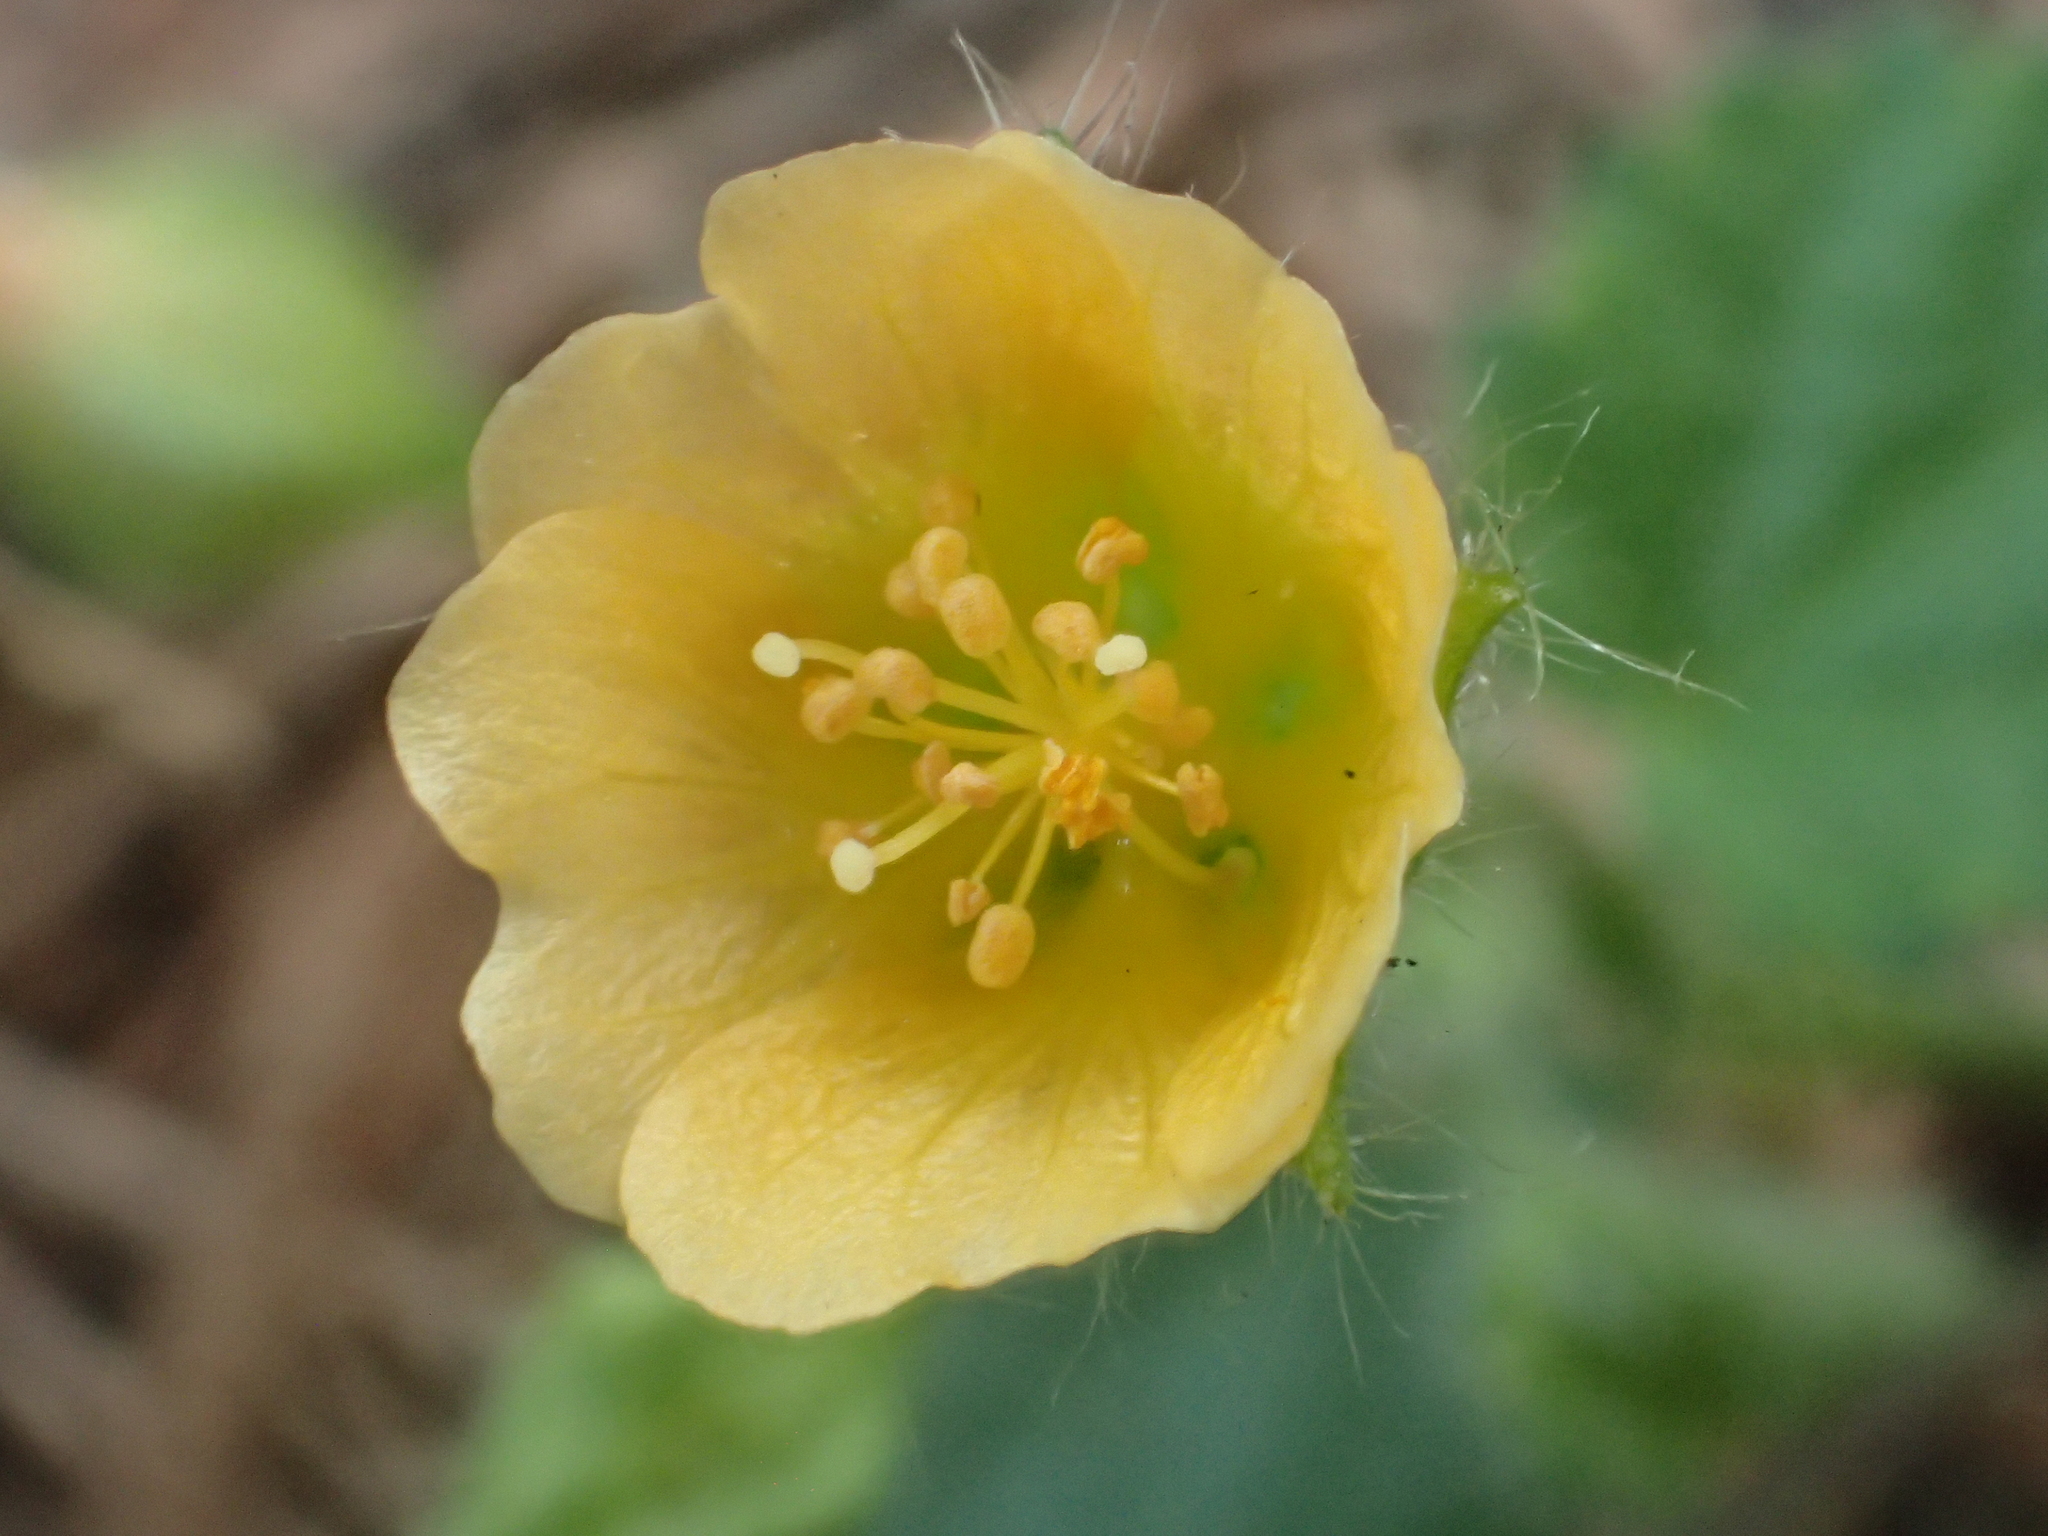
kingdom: Plantae
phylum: Tracheophyta
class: Magnoliopsida
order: Malvales
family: Malvaceae
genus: Sida
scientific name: Sida cordata
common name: Long-stalk sida
